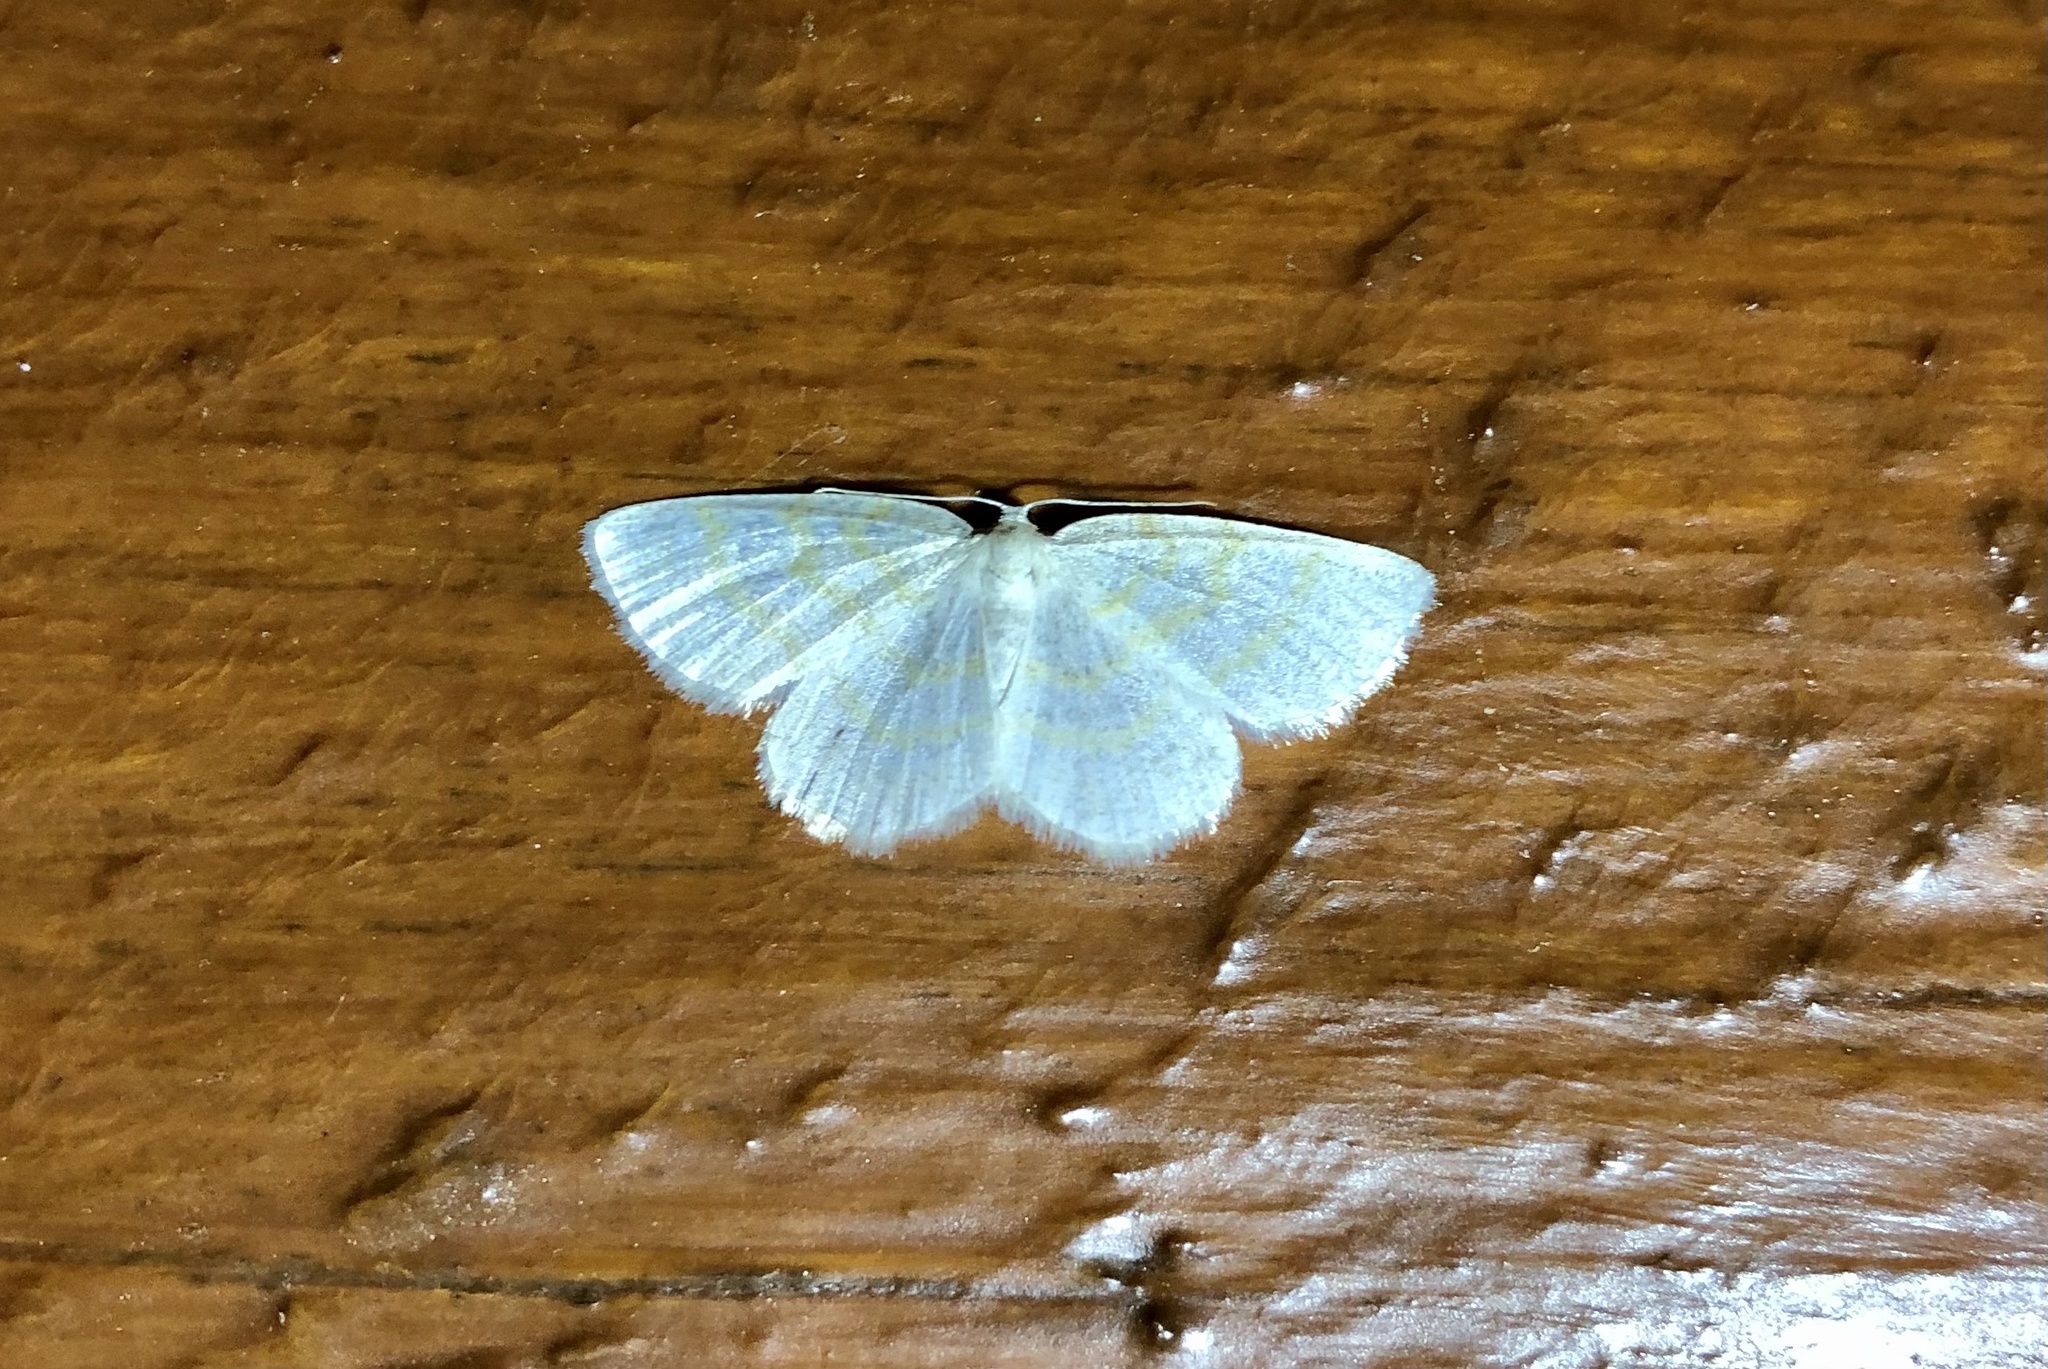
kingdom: Animalia
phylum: Arthropoda
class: Insecta
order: Lepidoptera
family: Geometridae
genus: Cabera
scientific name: Cabera erythemaria
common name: Yellow-dusted cream moth
